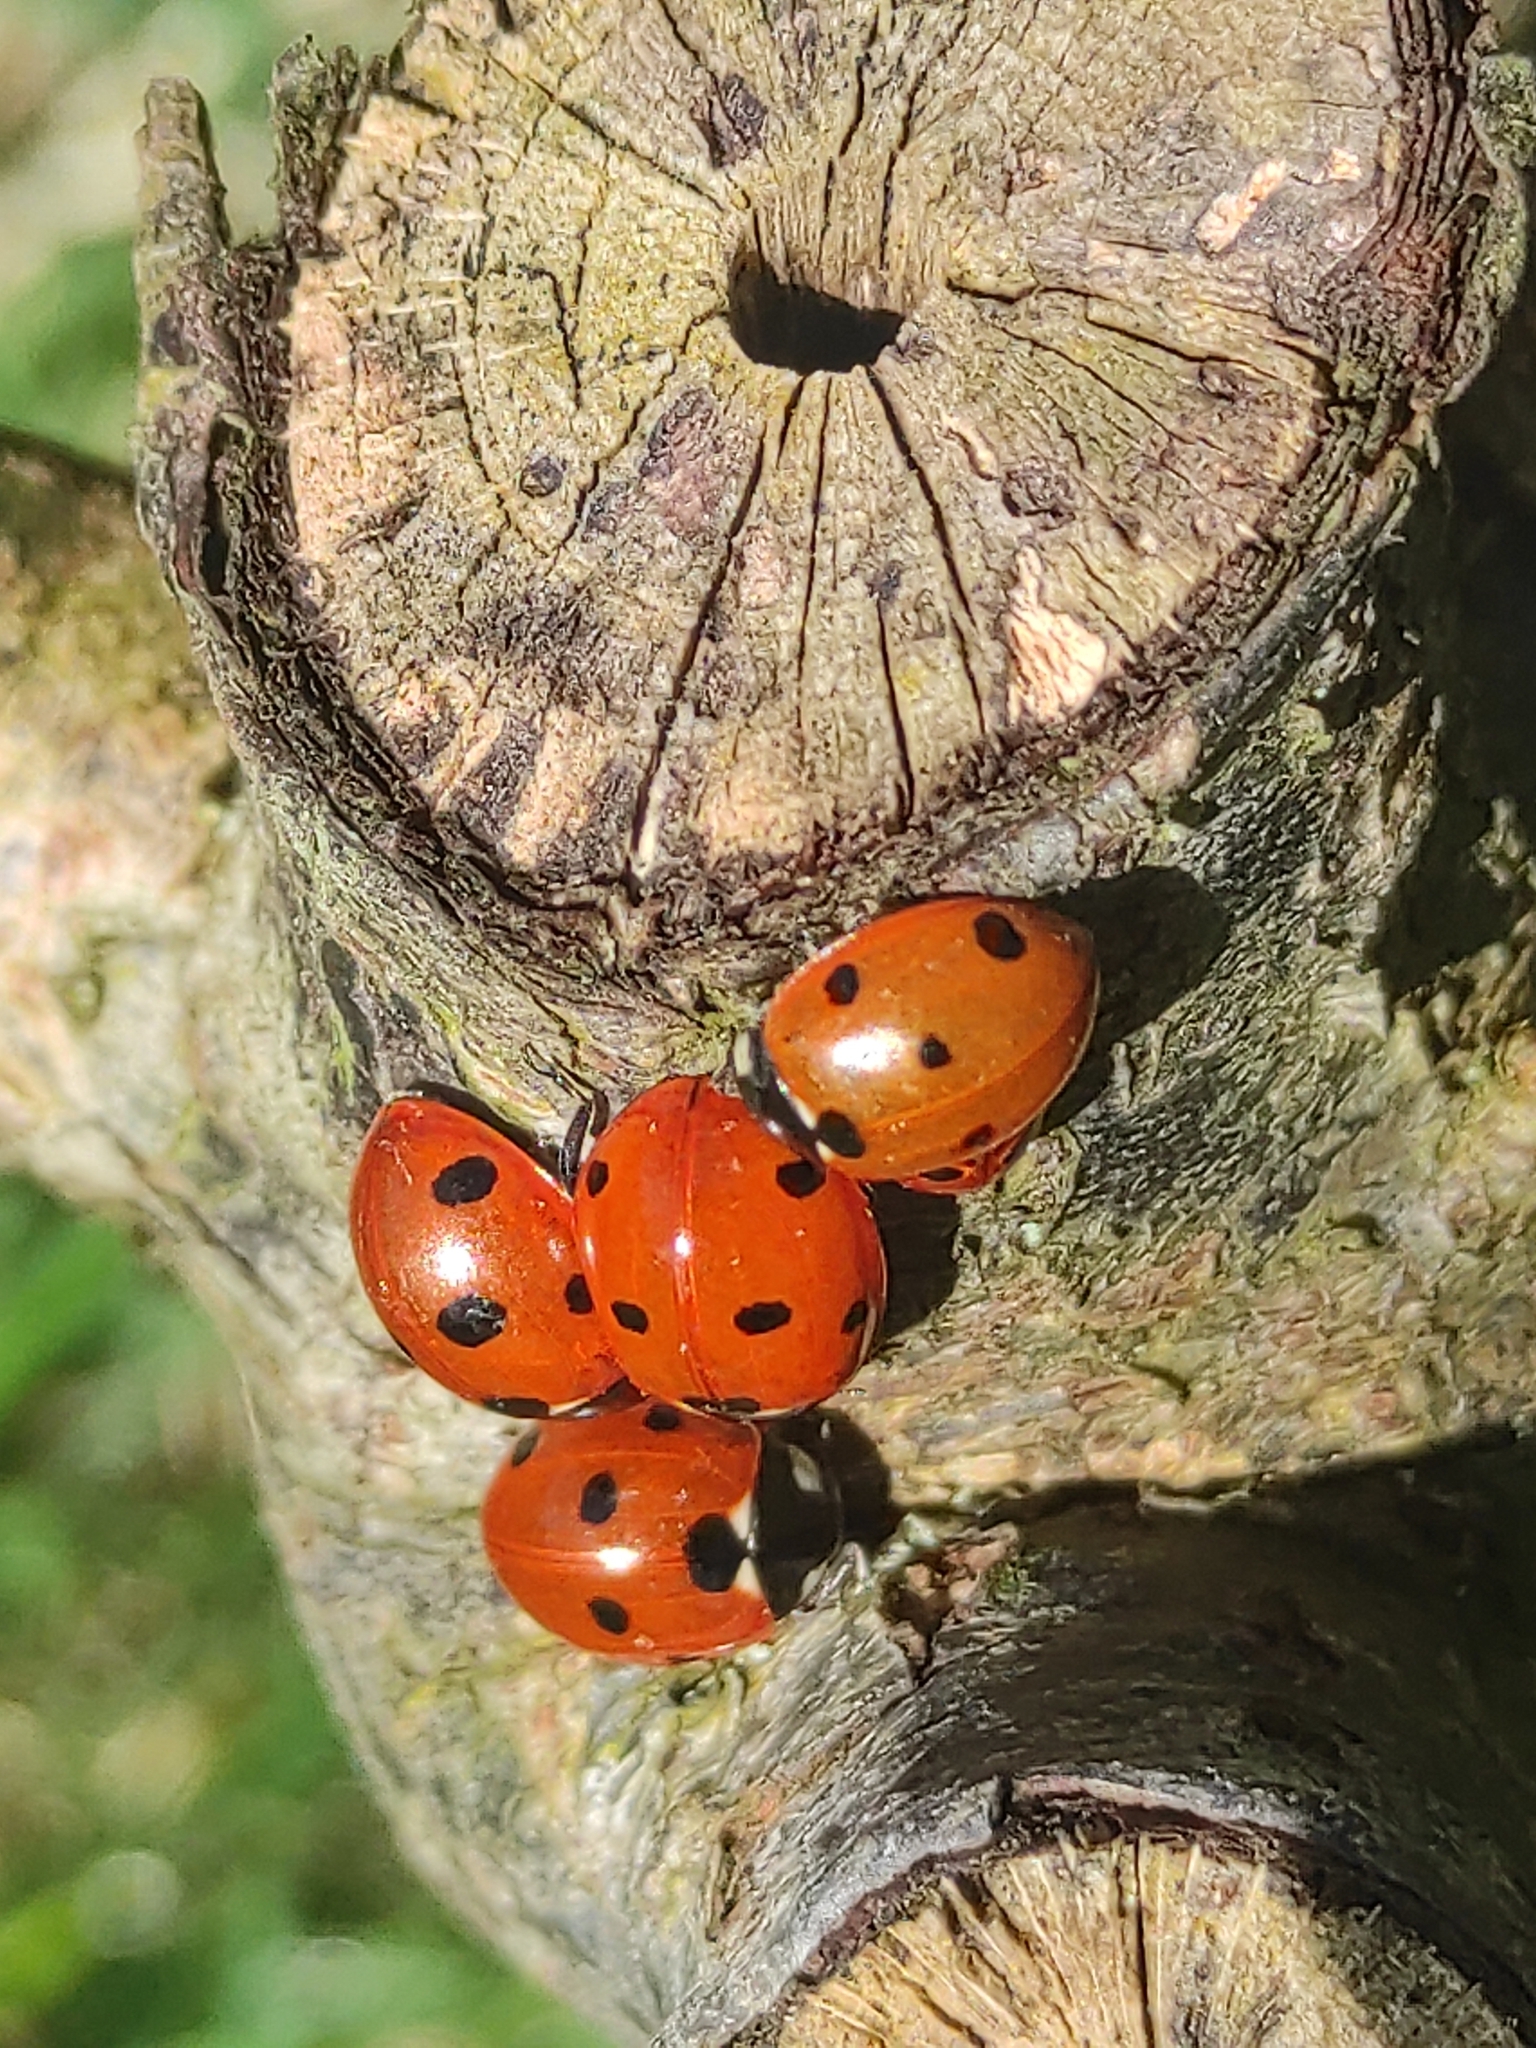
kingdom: Animalia
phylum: Arthropoda
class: Insecta
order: Coleoptera
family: Coccinellidae
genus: Coccinella
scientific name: Coccinella septempunctata
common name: Sevenspotted lady beetle
